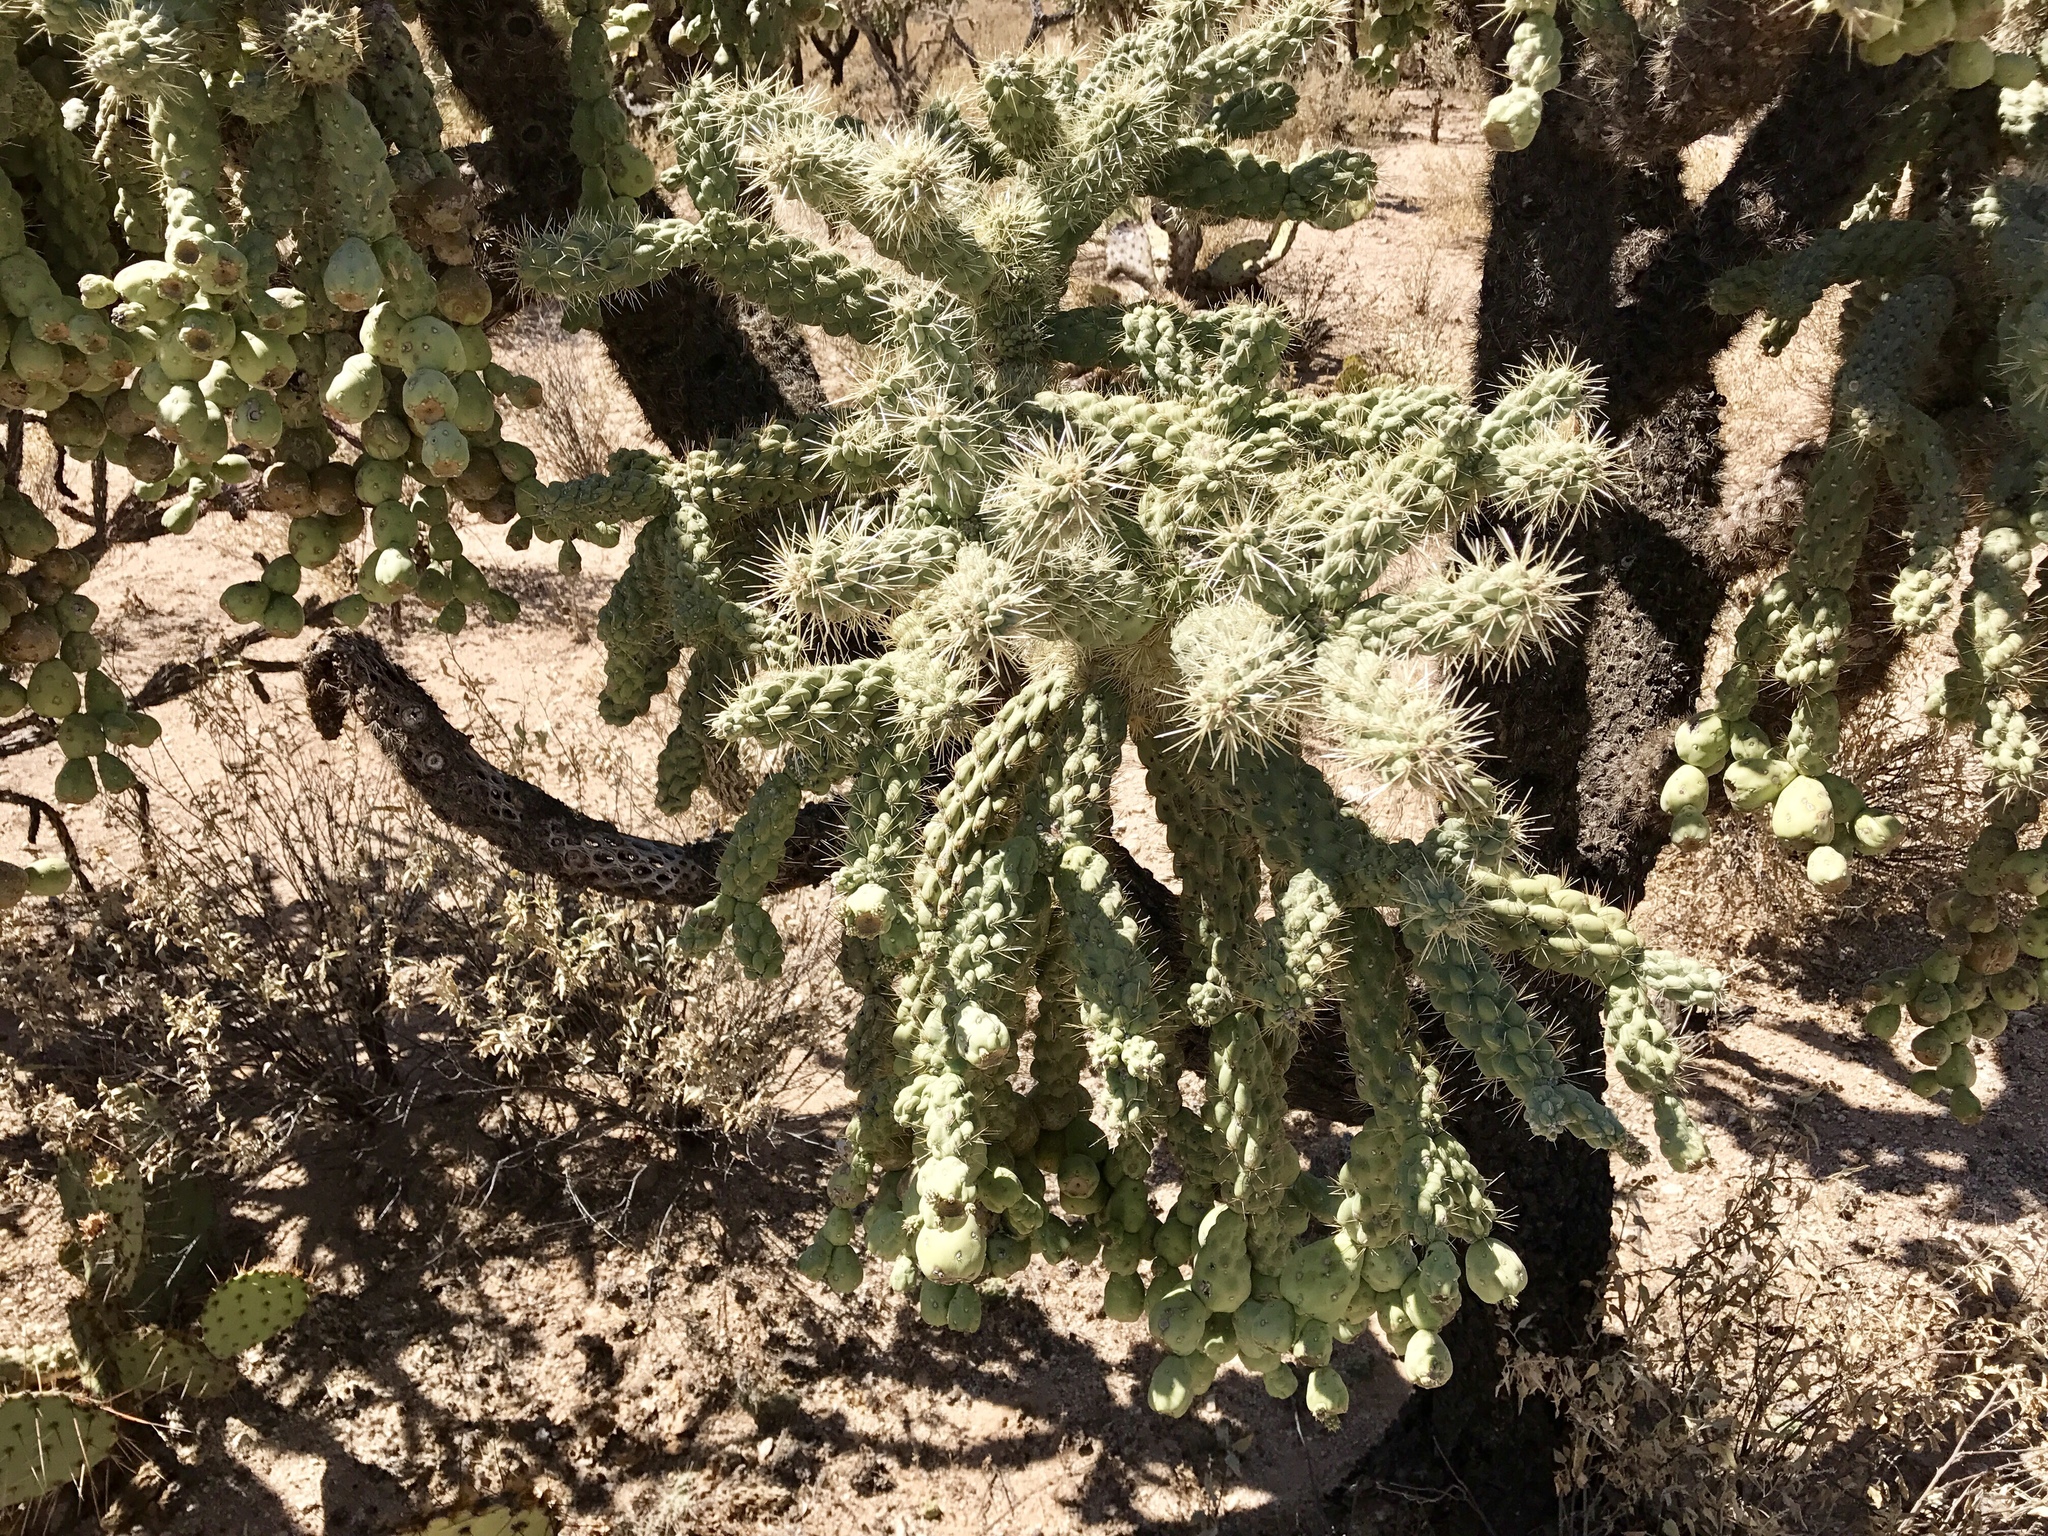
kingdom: Plantae
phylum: Tracheophyta
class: Magnoliopsida
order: Caryophyllales
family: Cactaceae
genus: Cylindropuntia
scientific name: Cylindropuntia fulgida
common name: Jumping cholla
